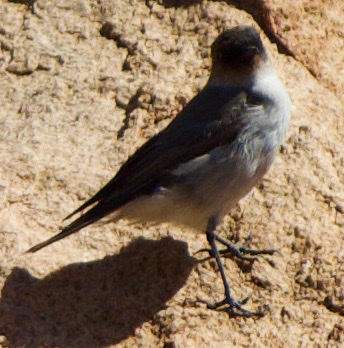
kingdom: Animalia
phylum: Chordata
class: Aves
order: Passeriformes
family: Tyrannidae
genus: Muscisaxicola
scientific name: Muscisaxicola maclovianus
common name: Dark-faced ground tyrant
